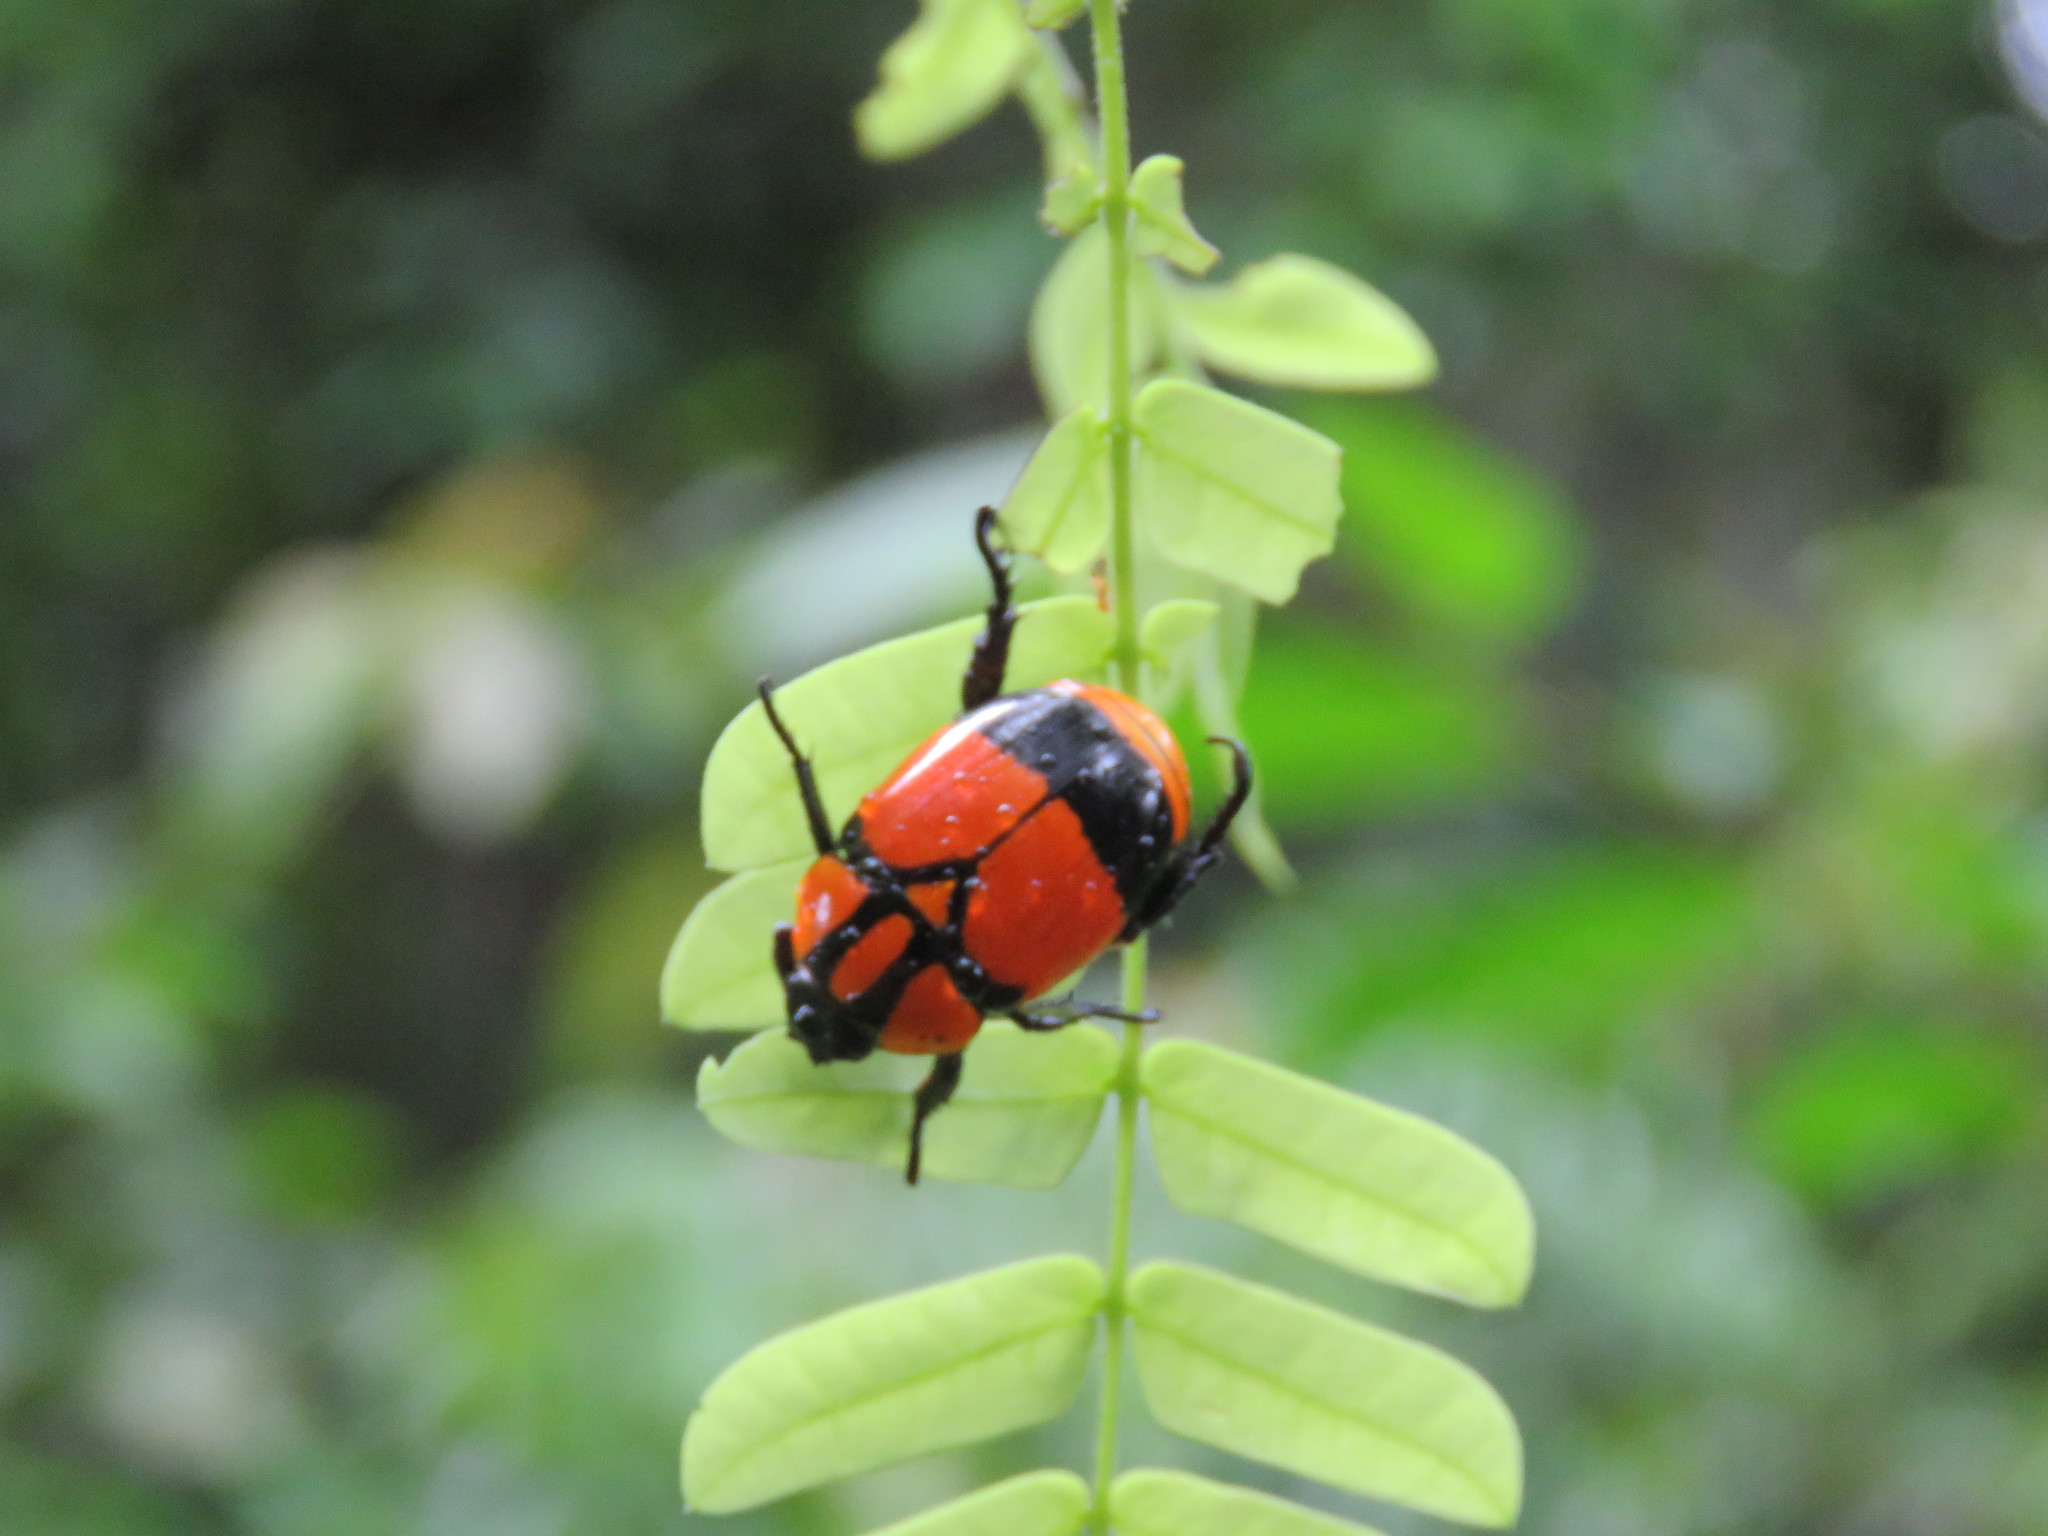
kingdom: Animalia
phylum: Arthropoda
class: Insecta
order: Coleoptera
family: Scarabaeidae
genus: Rutela
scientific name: Rutela heraldica
